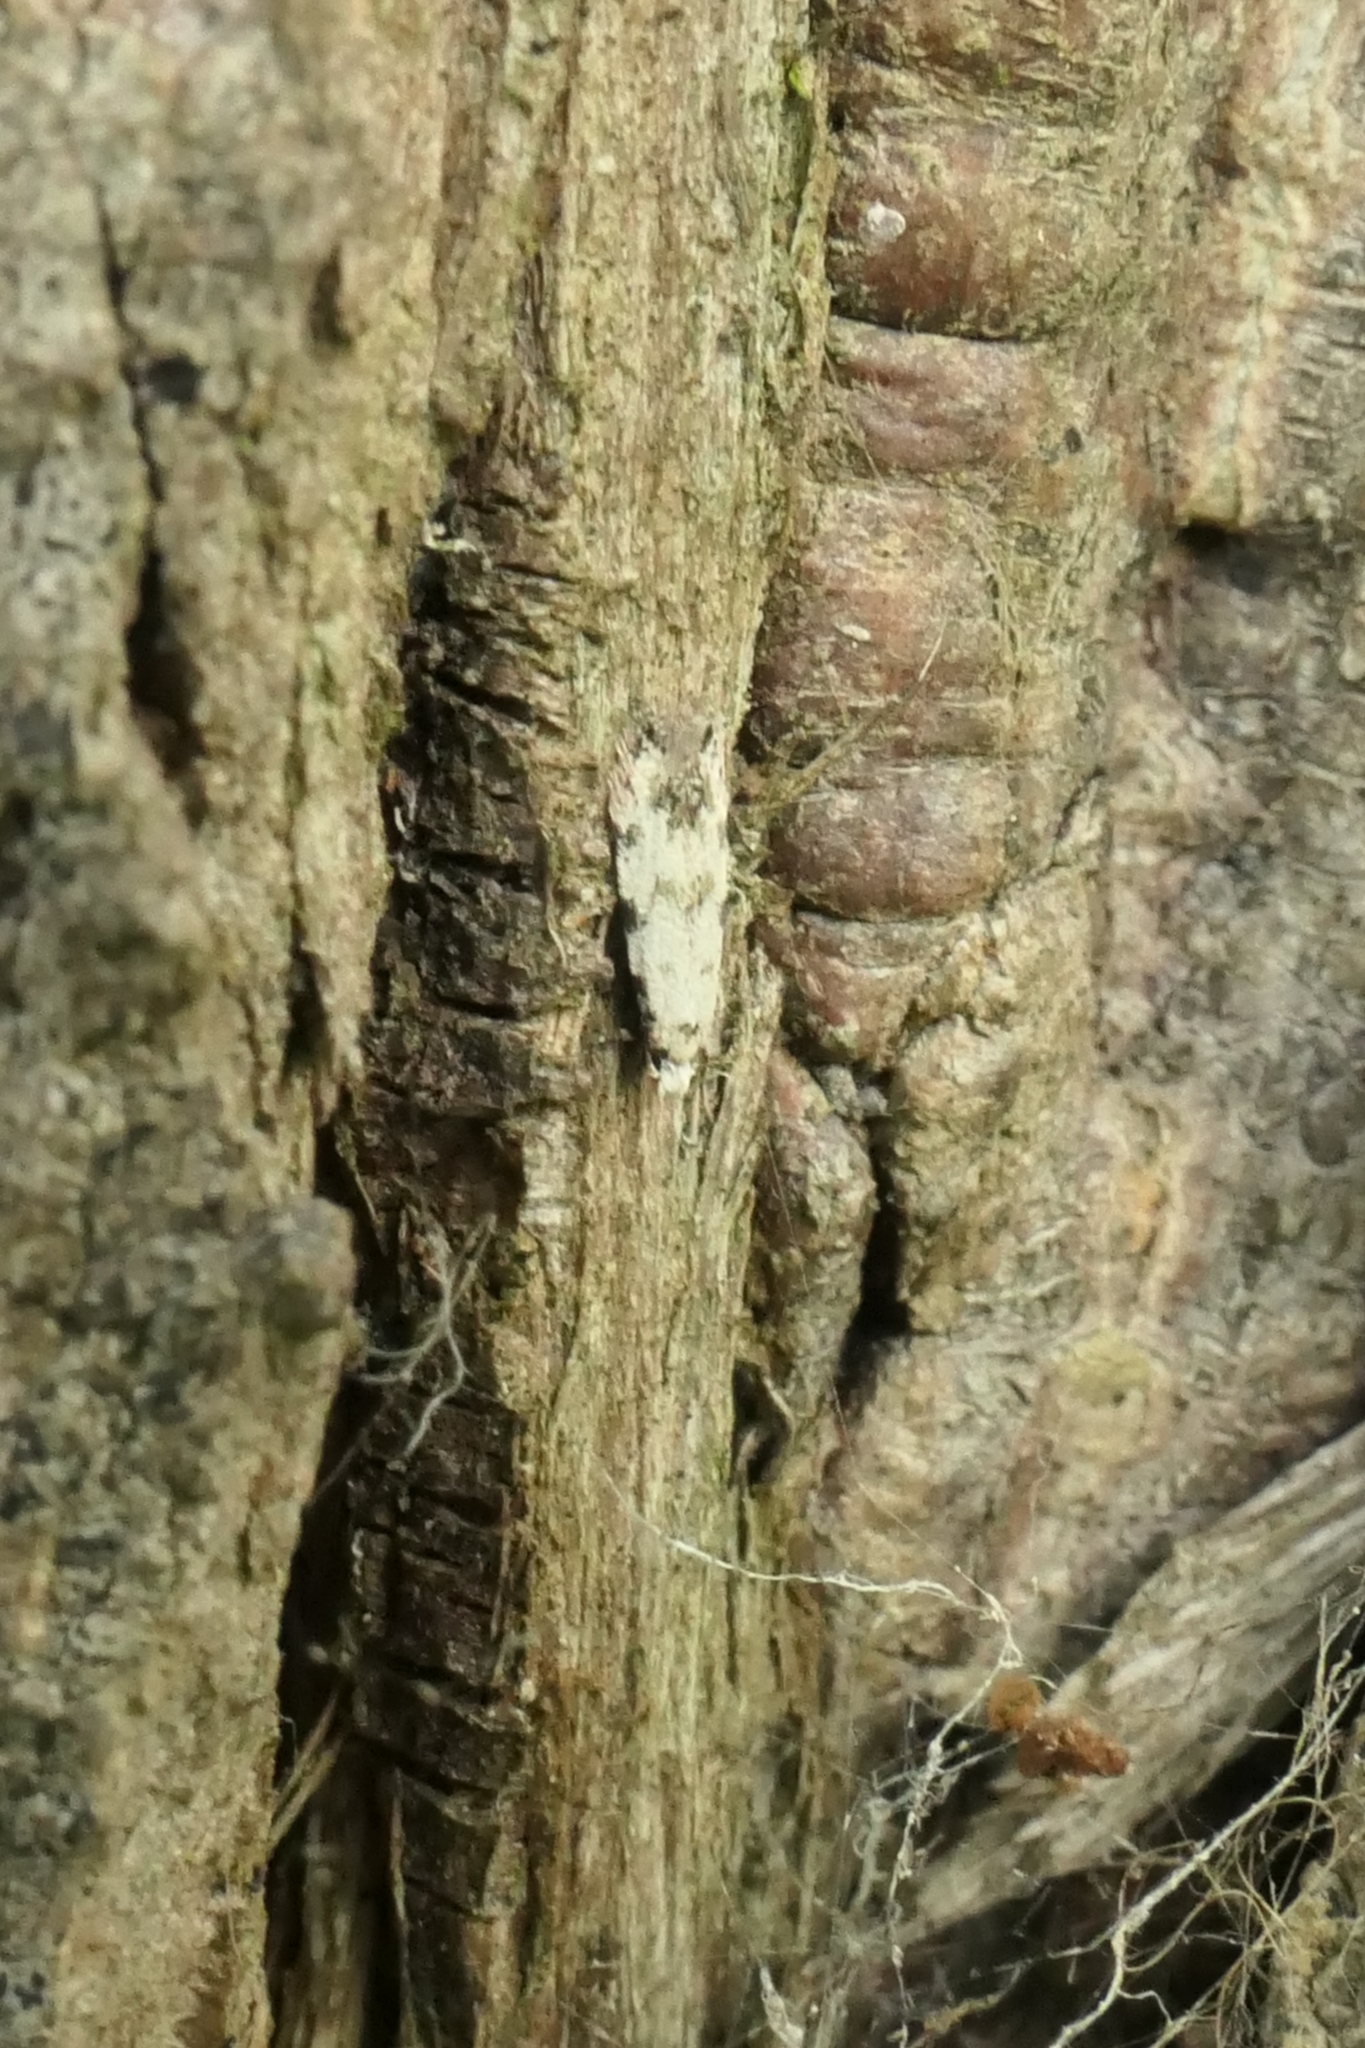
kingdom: Animalia
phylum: Arthropoda
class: Insecta
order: Lepidoptera
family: Tineidae
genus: Crypsitricha
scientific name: Crypsitricha stereota
